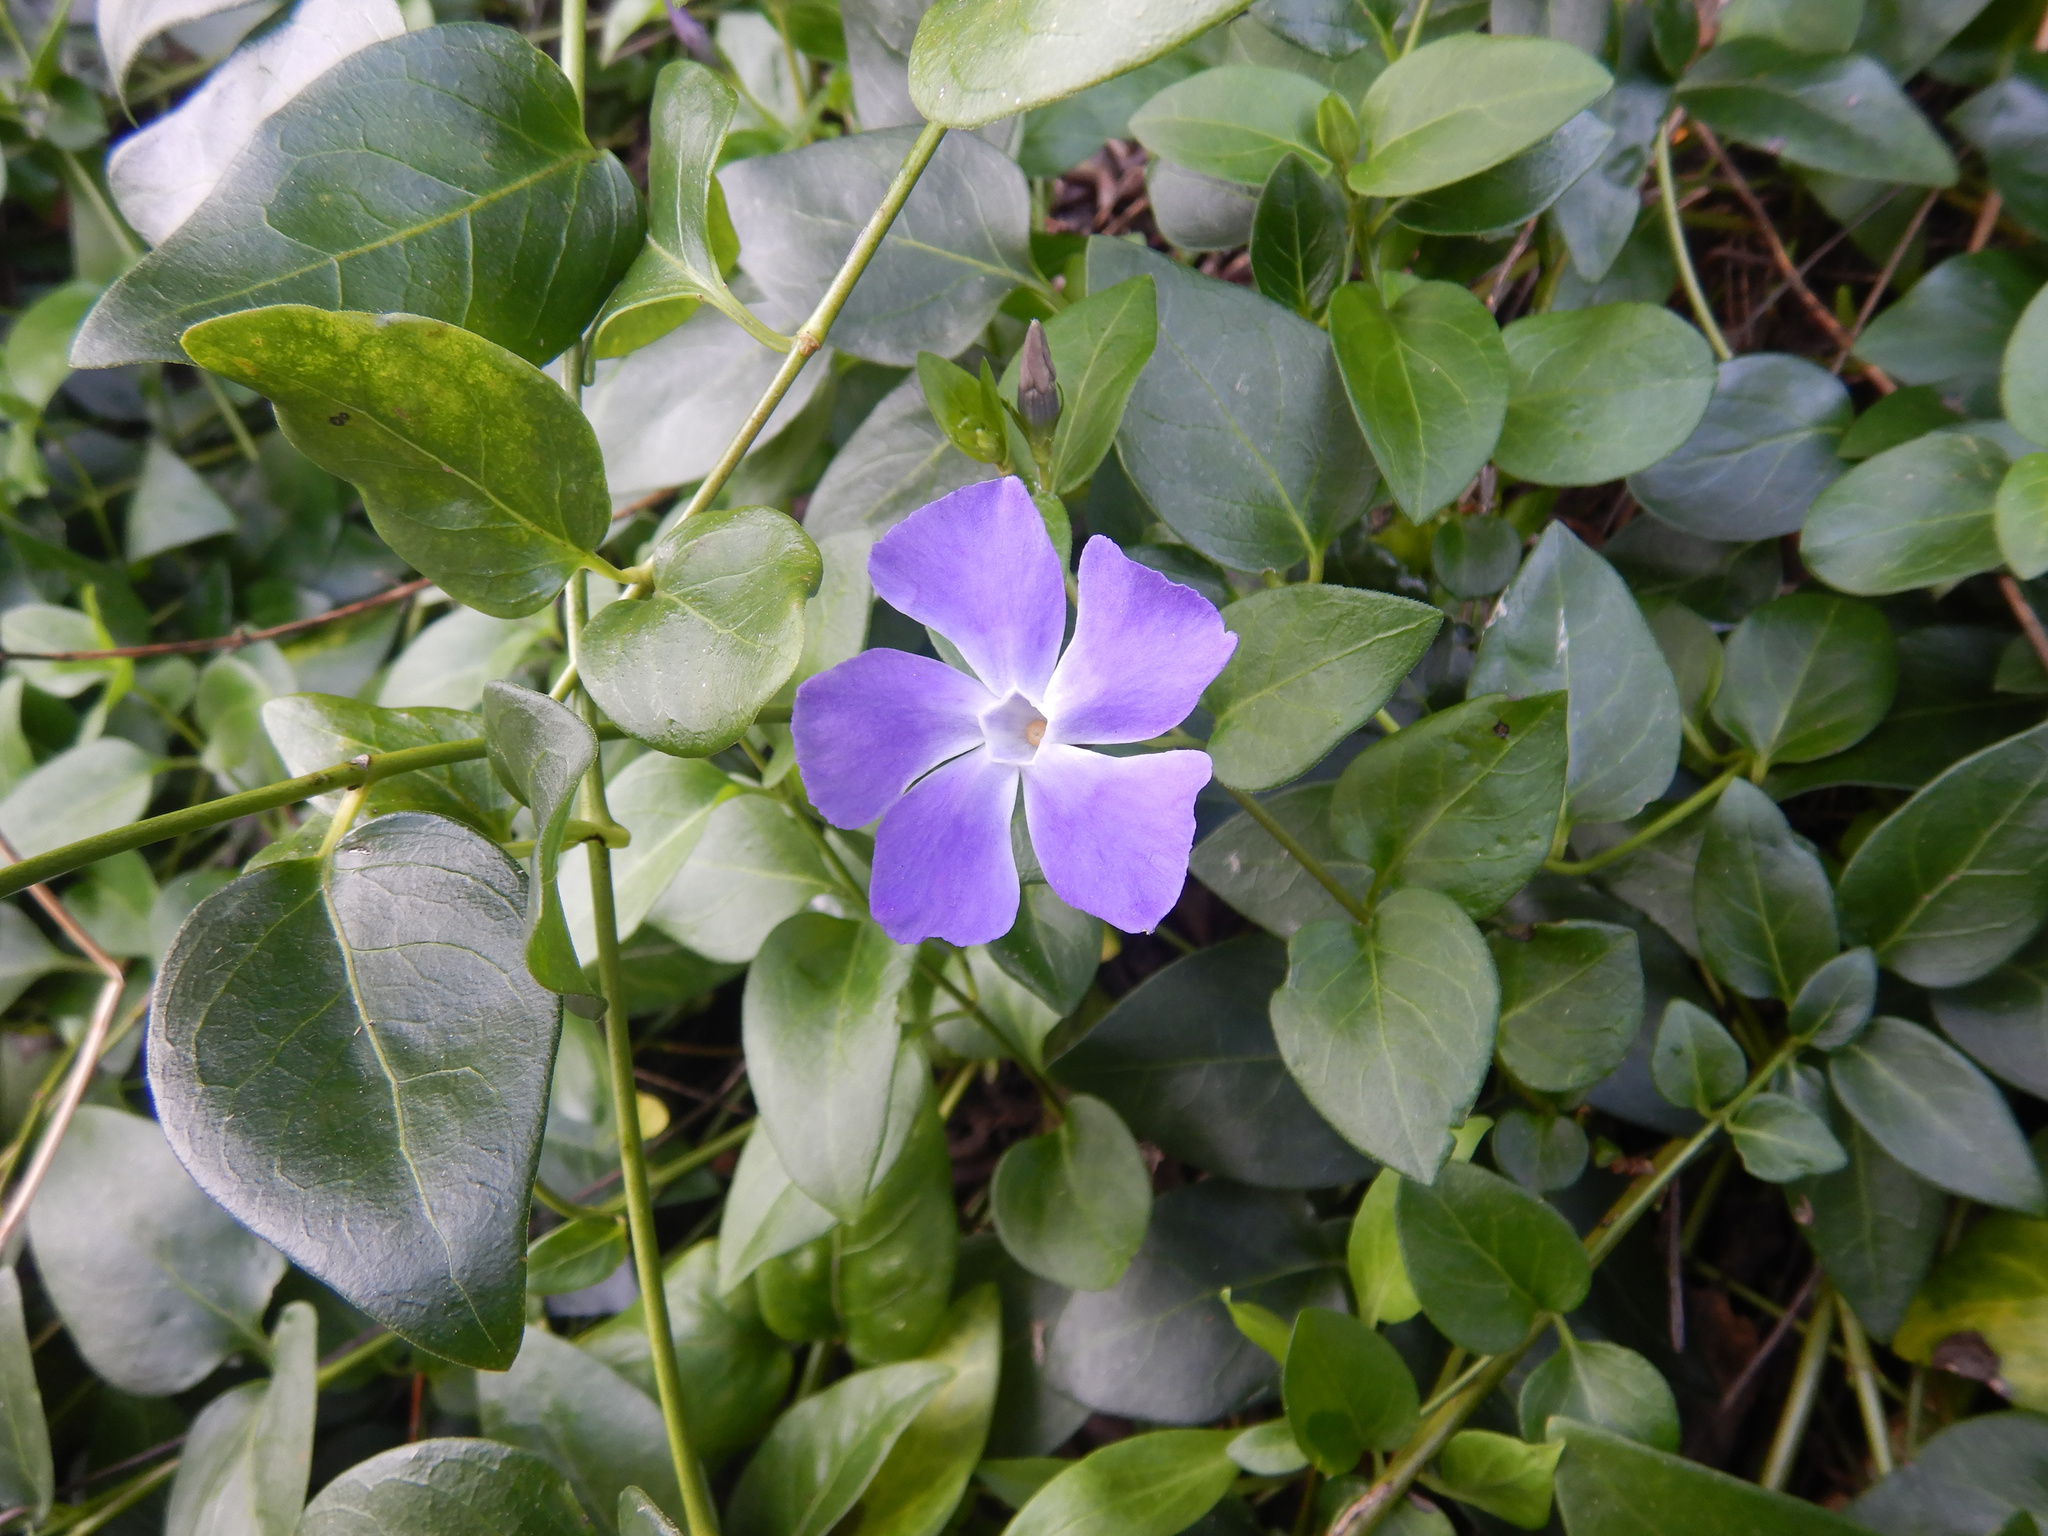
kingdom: Plantae
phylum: Tracheophyta
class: Magnoliopsida
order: Gentianales
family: Apocynaceae
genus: Vinca
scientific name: Vinca major
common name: Greater periwinkle
